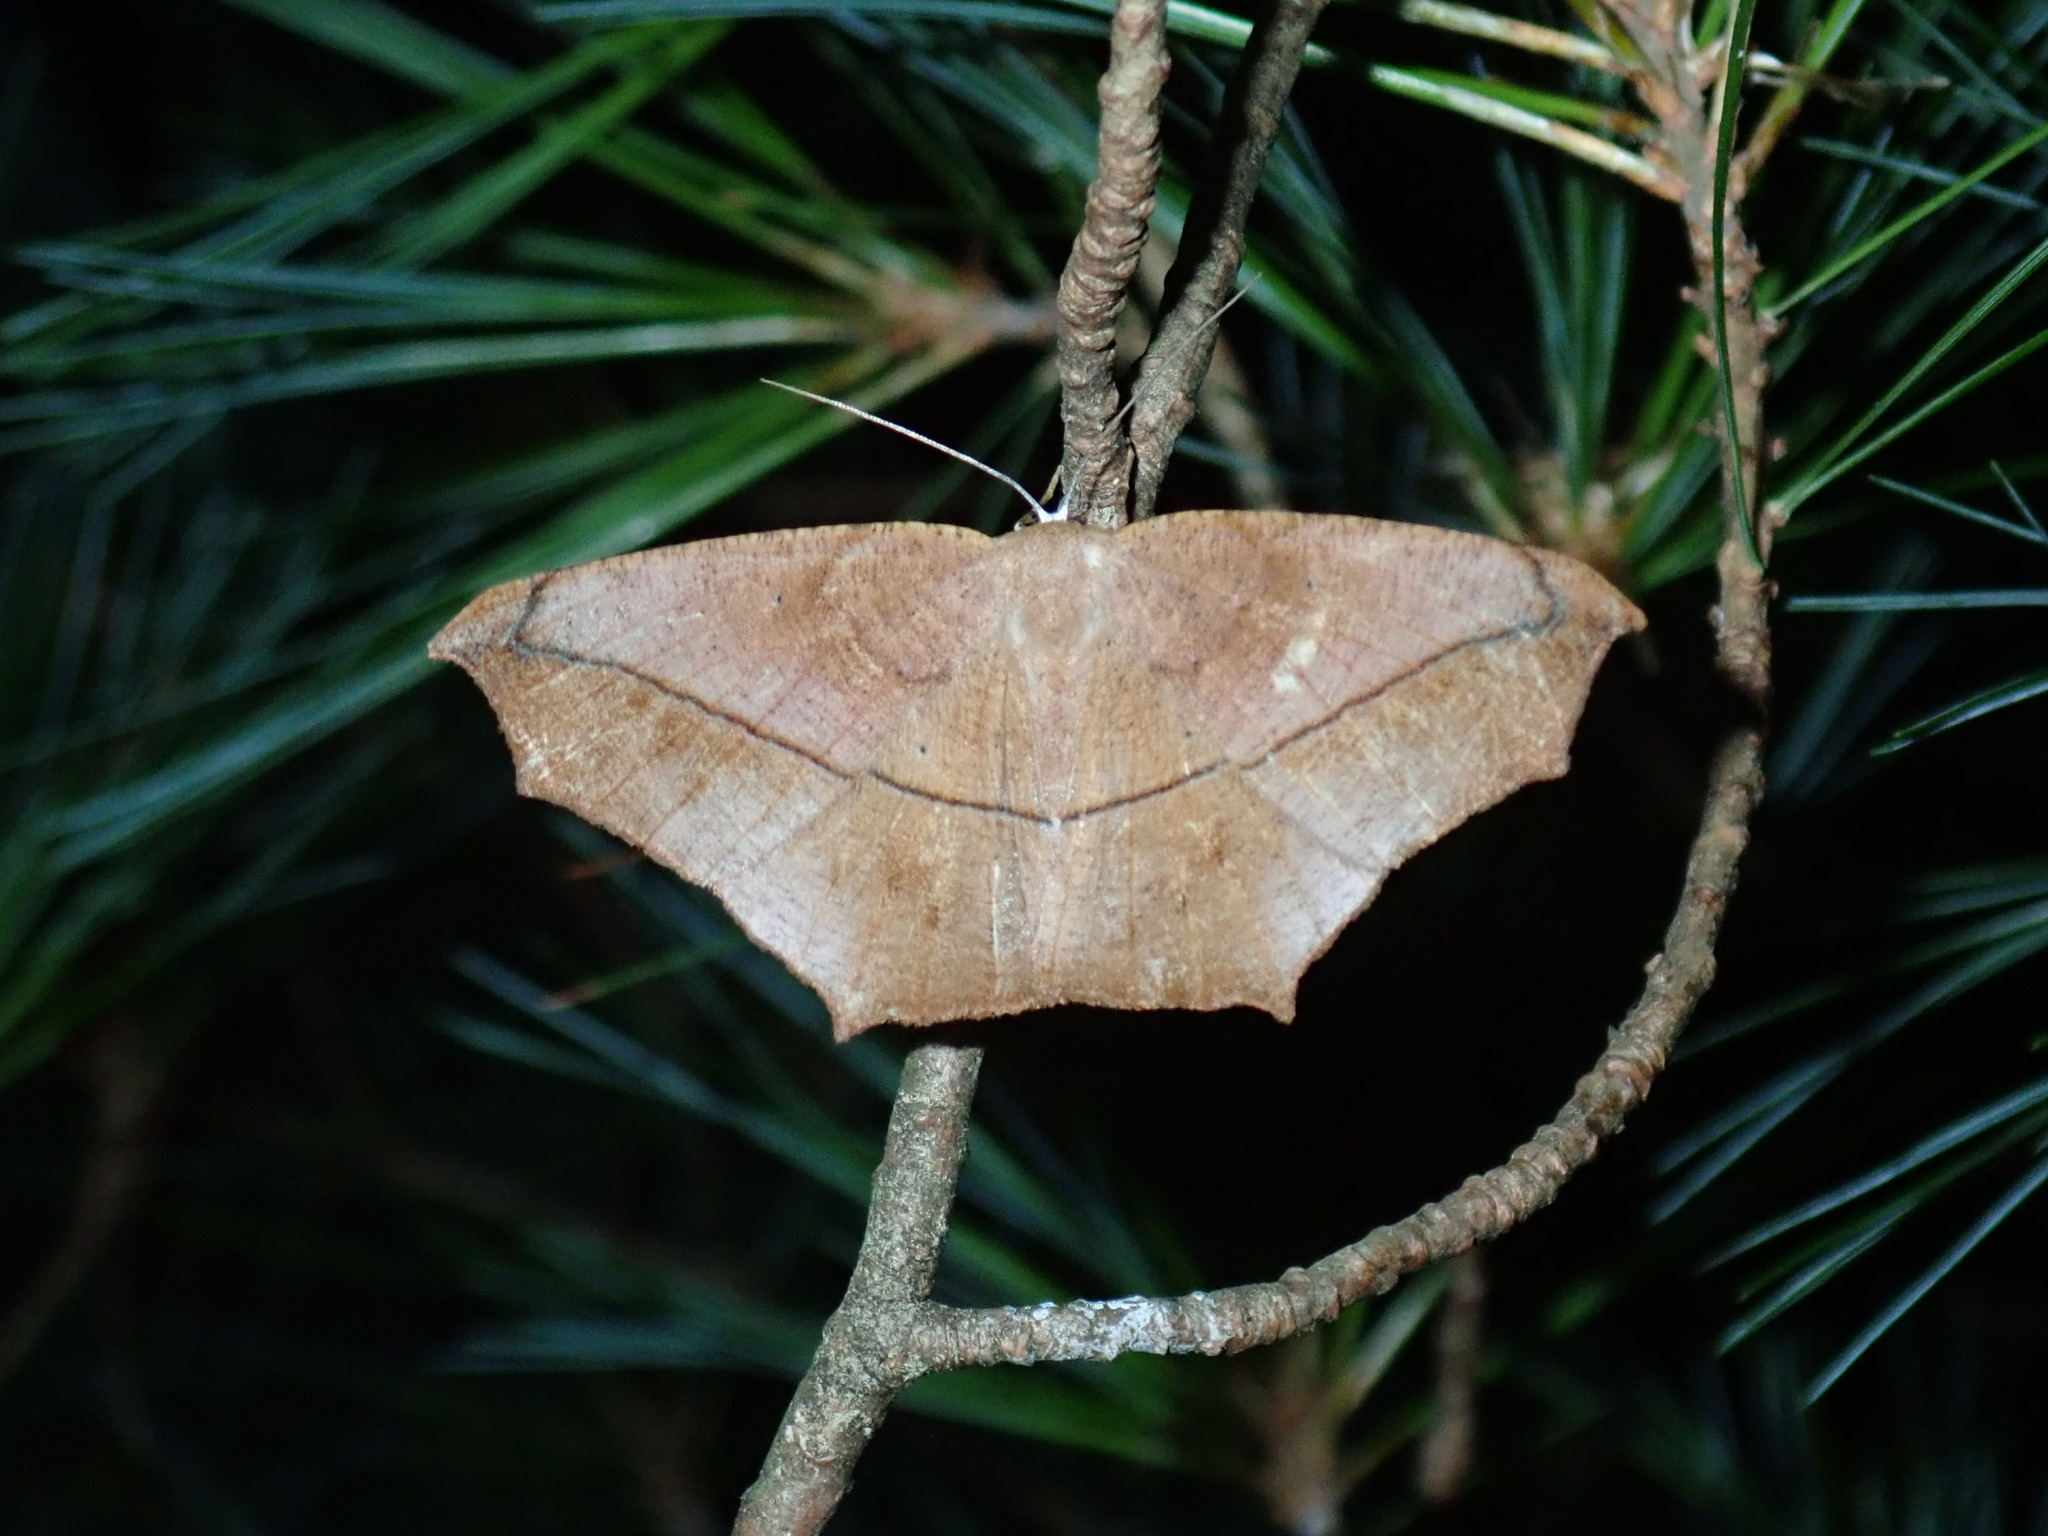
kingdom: Animalia
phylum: Arthropoda
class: Insecta
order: Lepidoptera
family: Geometridae
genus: Prochoerodes
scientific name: Prochoerodes lineola
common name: Large maple spanworm
